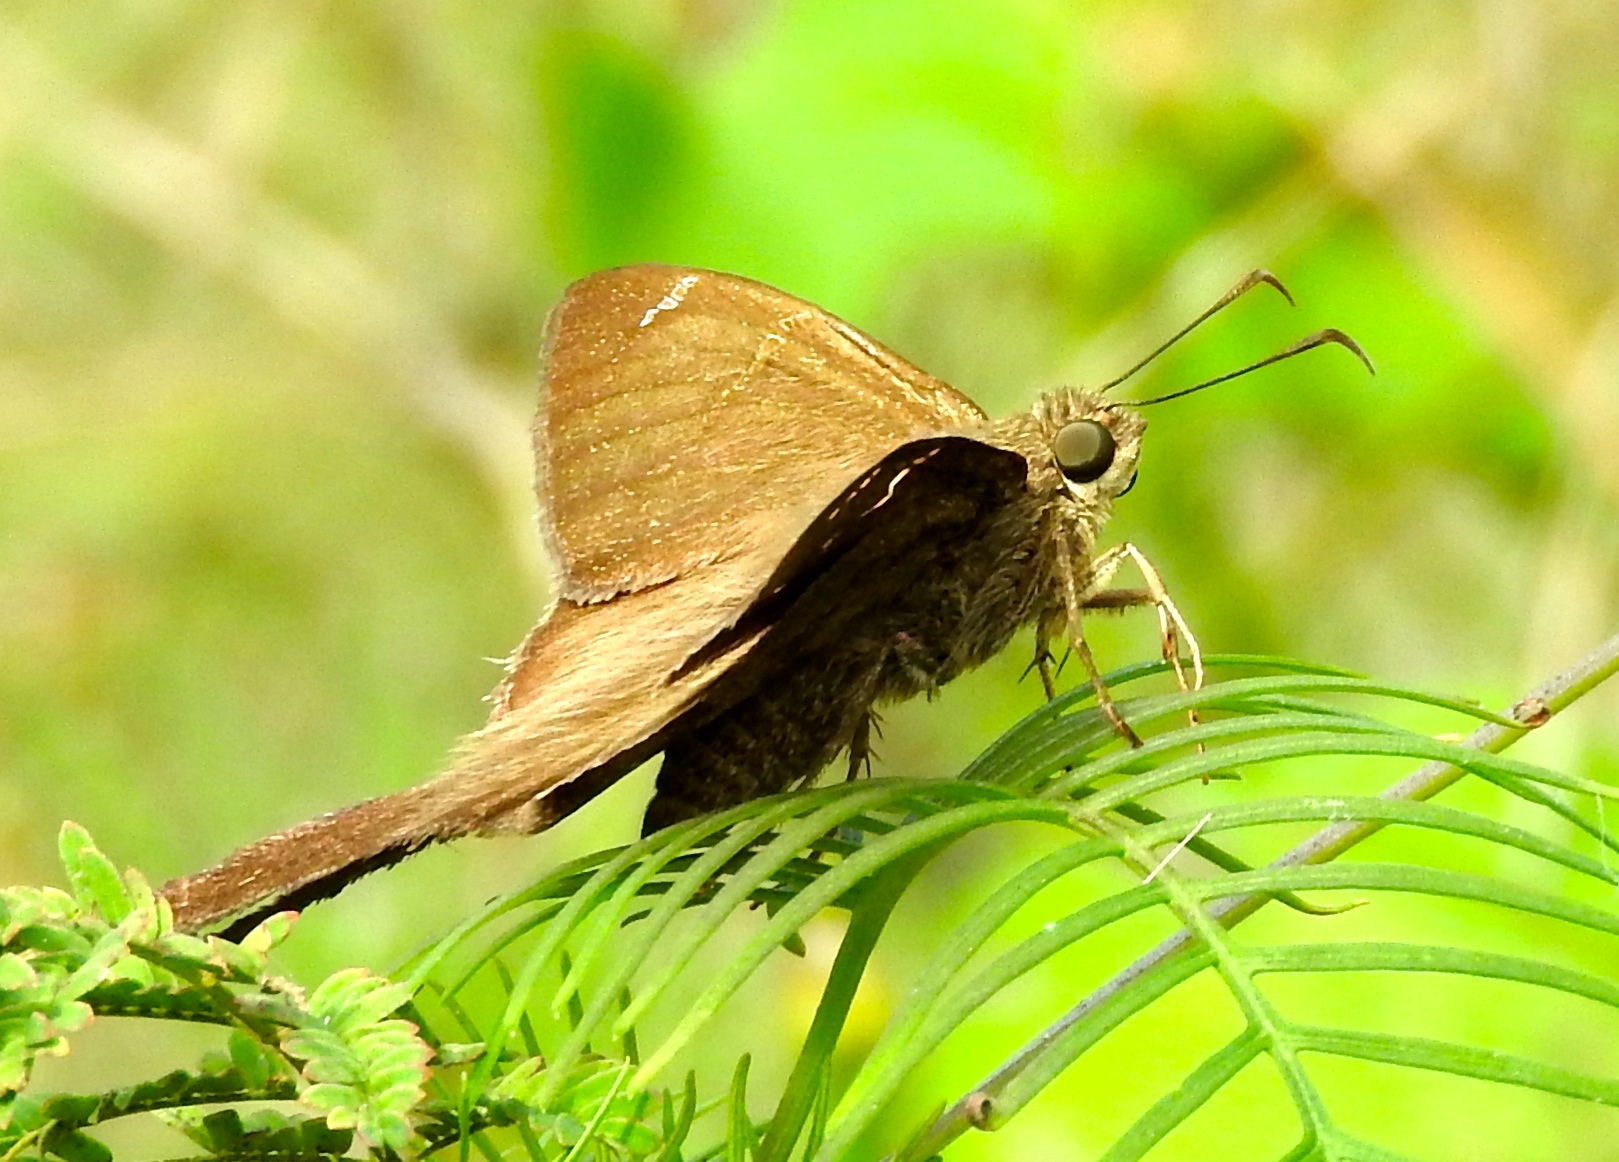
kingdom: Animalia
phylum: Arthropoda
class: Insecta
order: Lepidoptera
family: Hesperiidae
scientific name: Hesperiidae
